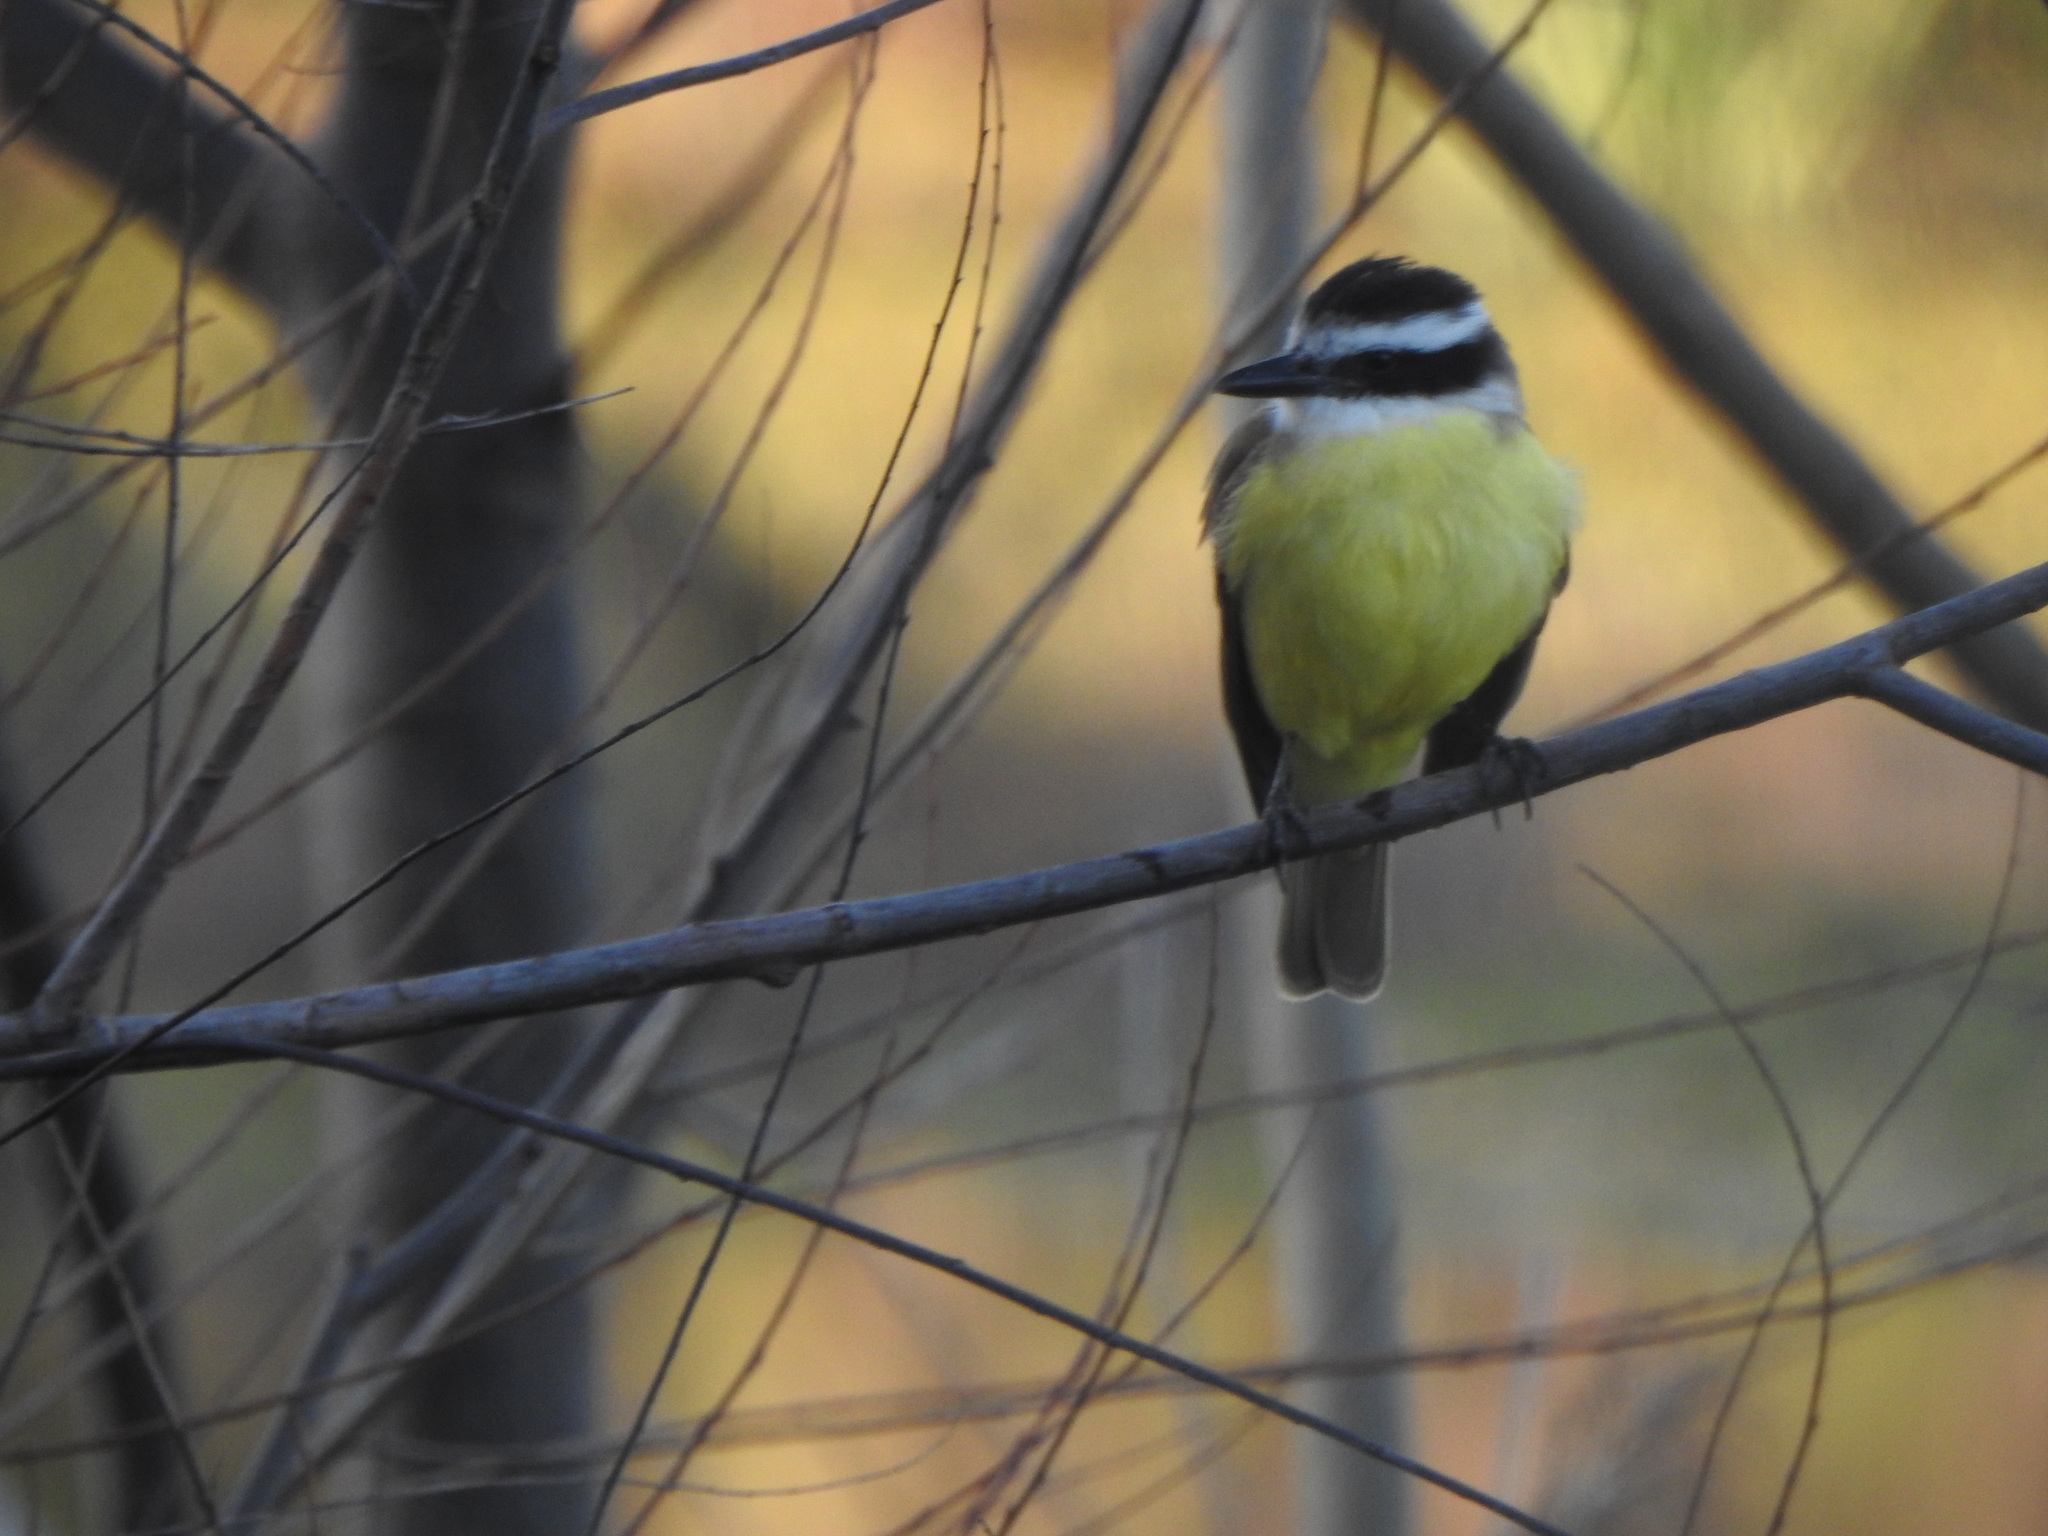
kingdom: Animalia
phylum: Chordata
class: Aves
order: Passeriformes
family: Tyrannidae
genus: Pitangus
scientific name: Pitangus sulphuratus
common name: Great kiskadee
